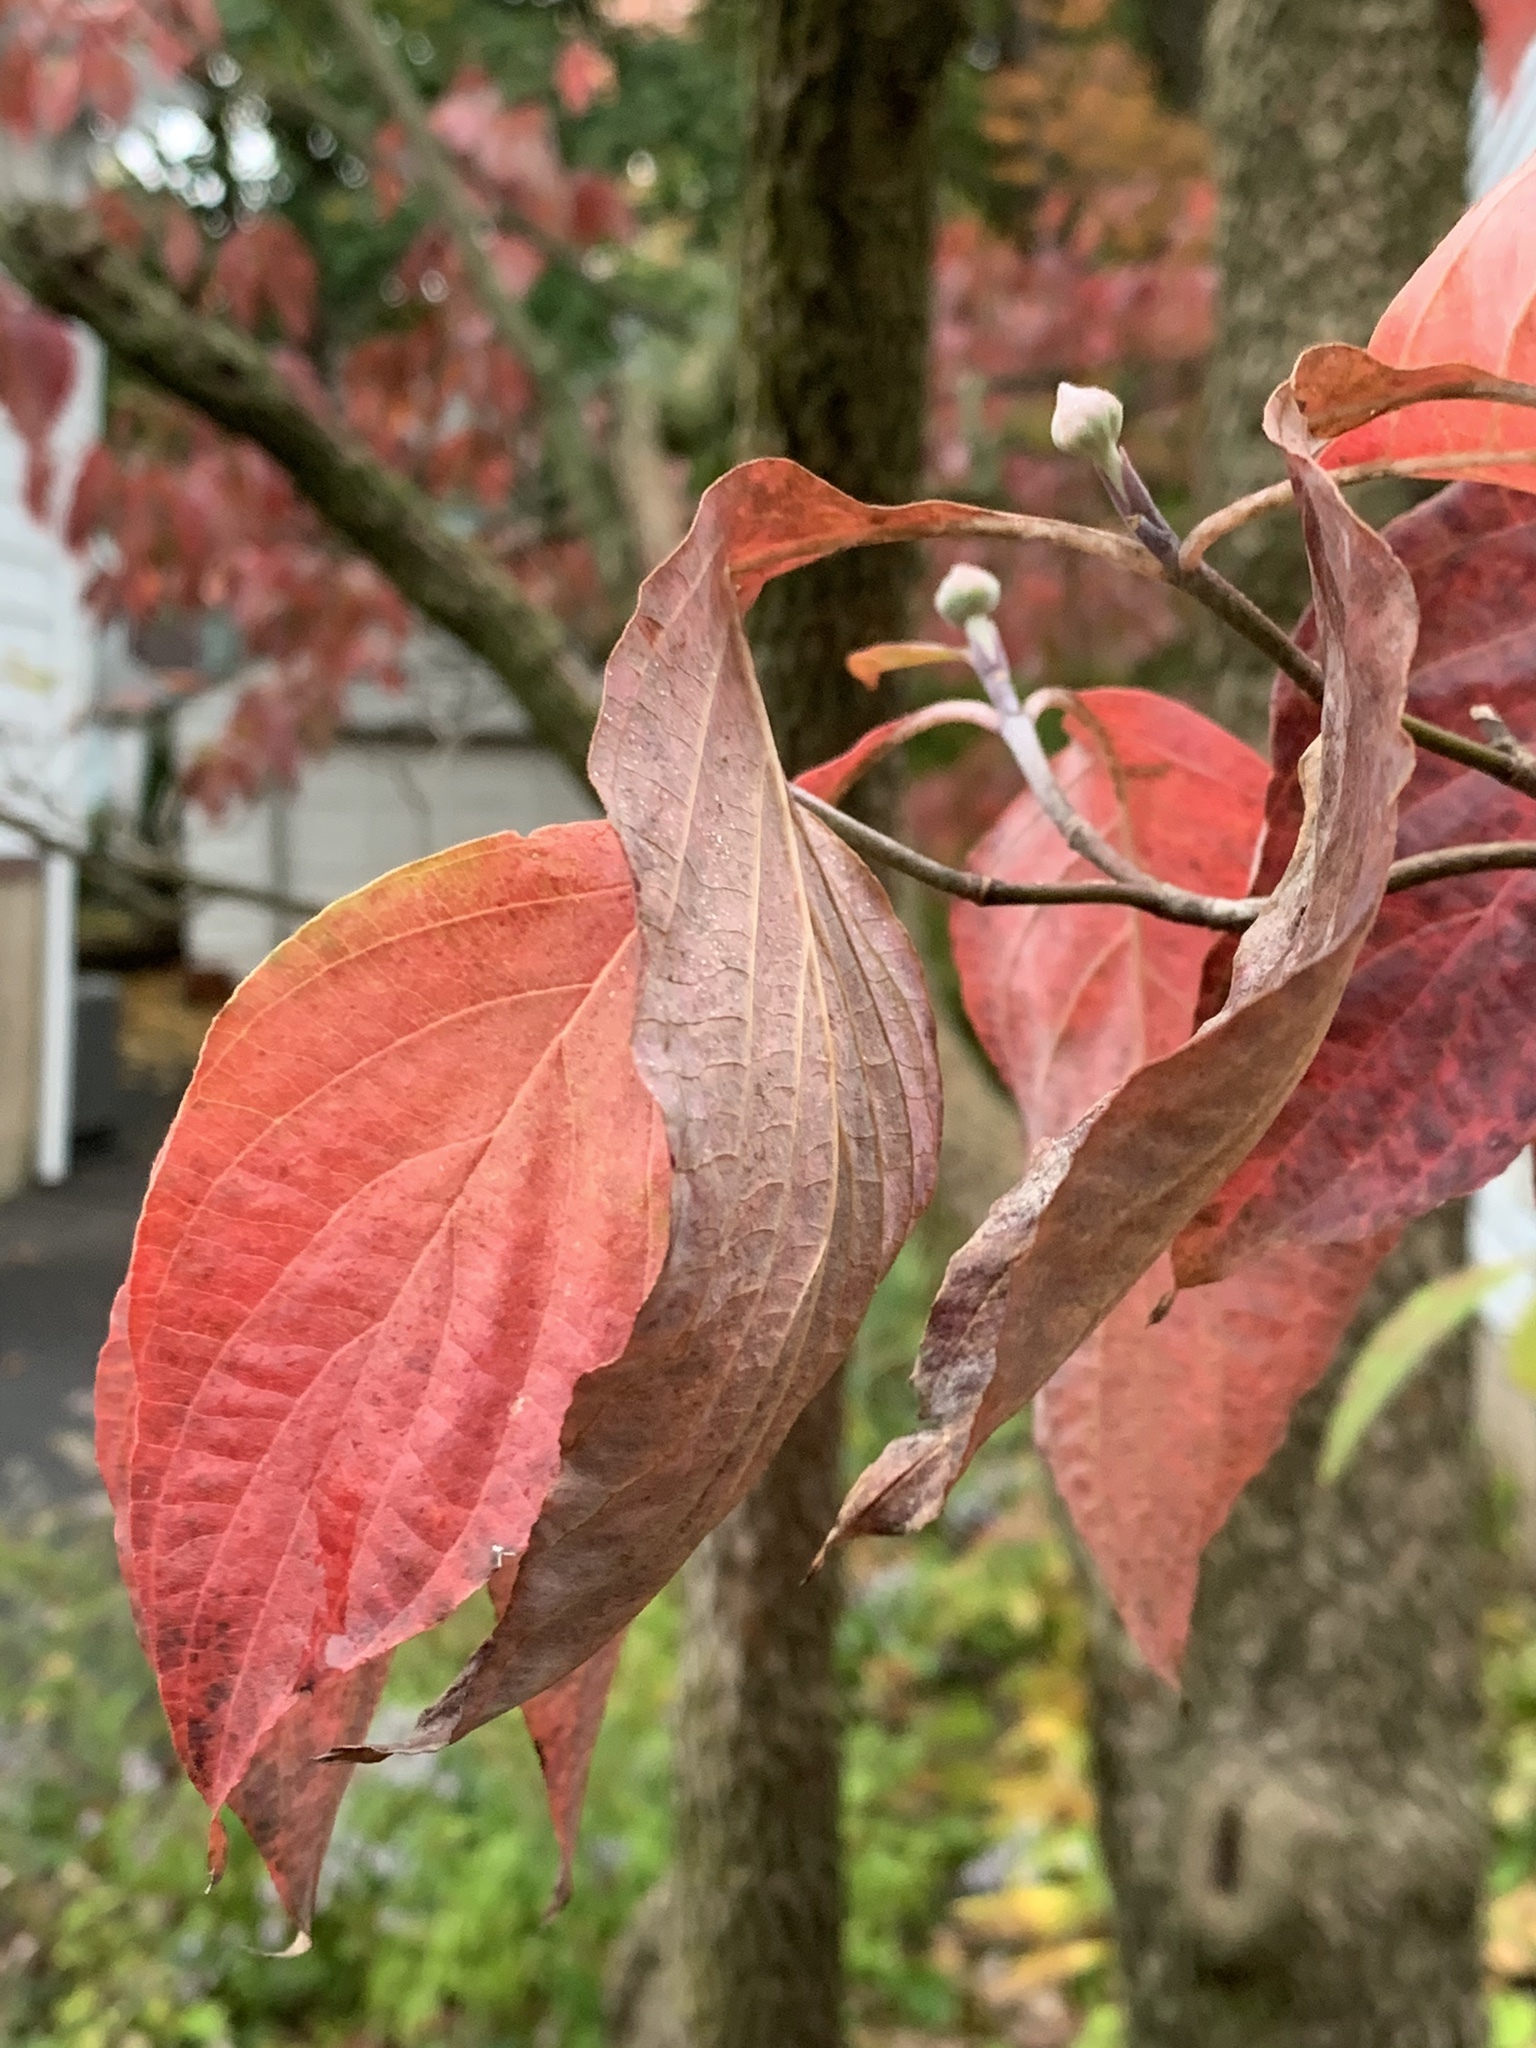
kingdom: Plantae
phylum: Tracheophyta
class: Magnoliopsida
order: Cornales
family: Cornaceae
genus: Cornus
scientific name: Cornus florida
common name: Flowering dogwood
